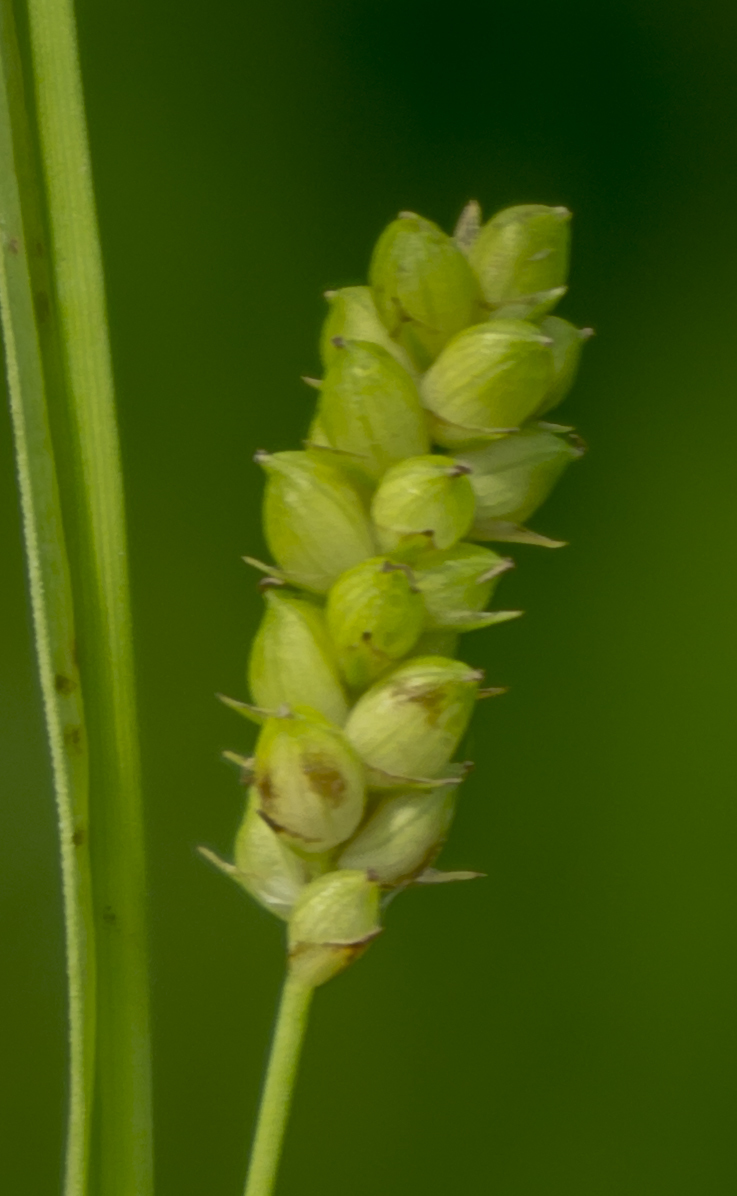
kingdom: Plantae
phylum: Tracheophyta
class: Liliopsida
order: Poales
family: Cyperaceae
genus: Carex
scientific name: Carex granularis
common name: Granular sedge
